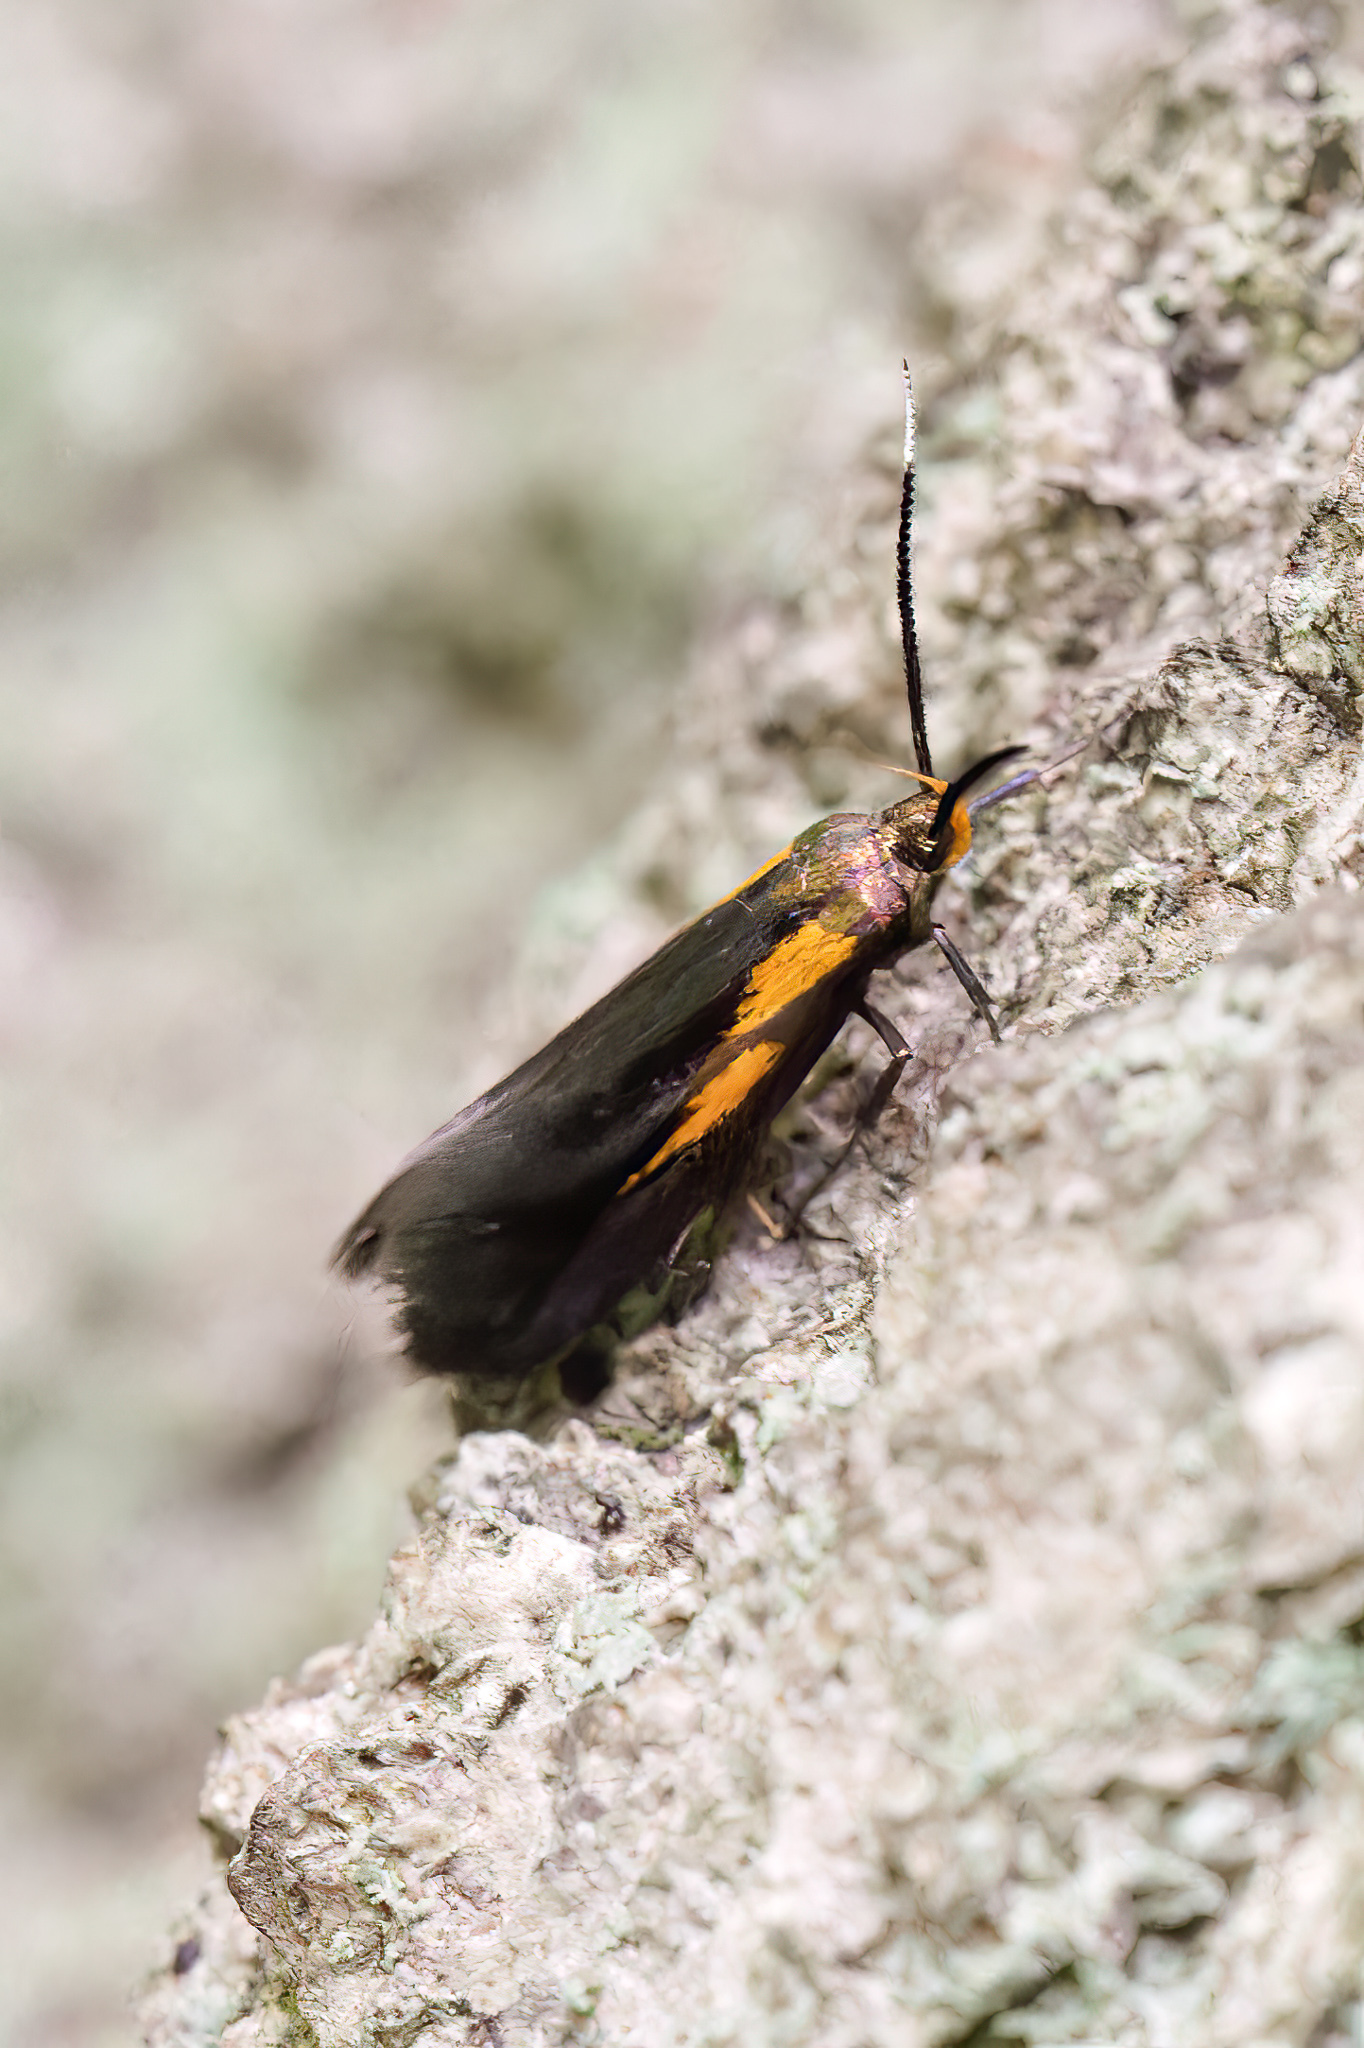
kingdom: Animalia
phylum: Arthropoda
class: Insecta
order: Lepidoptera
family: Oecophoridae
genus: Mathildana
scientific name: Mathildana newmanella
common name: Newman's mathildana moth
